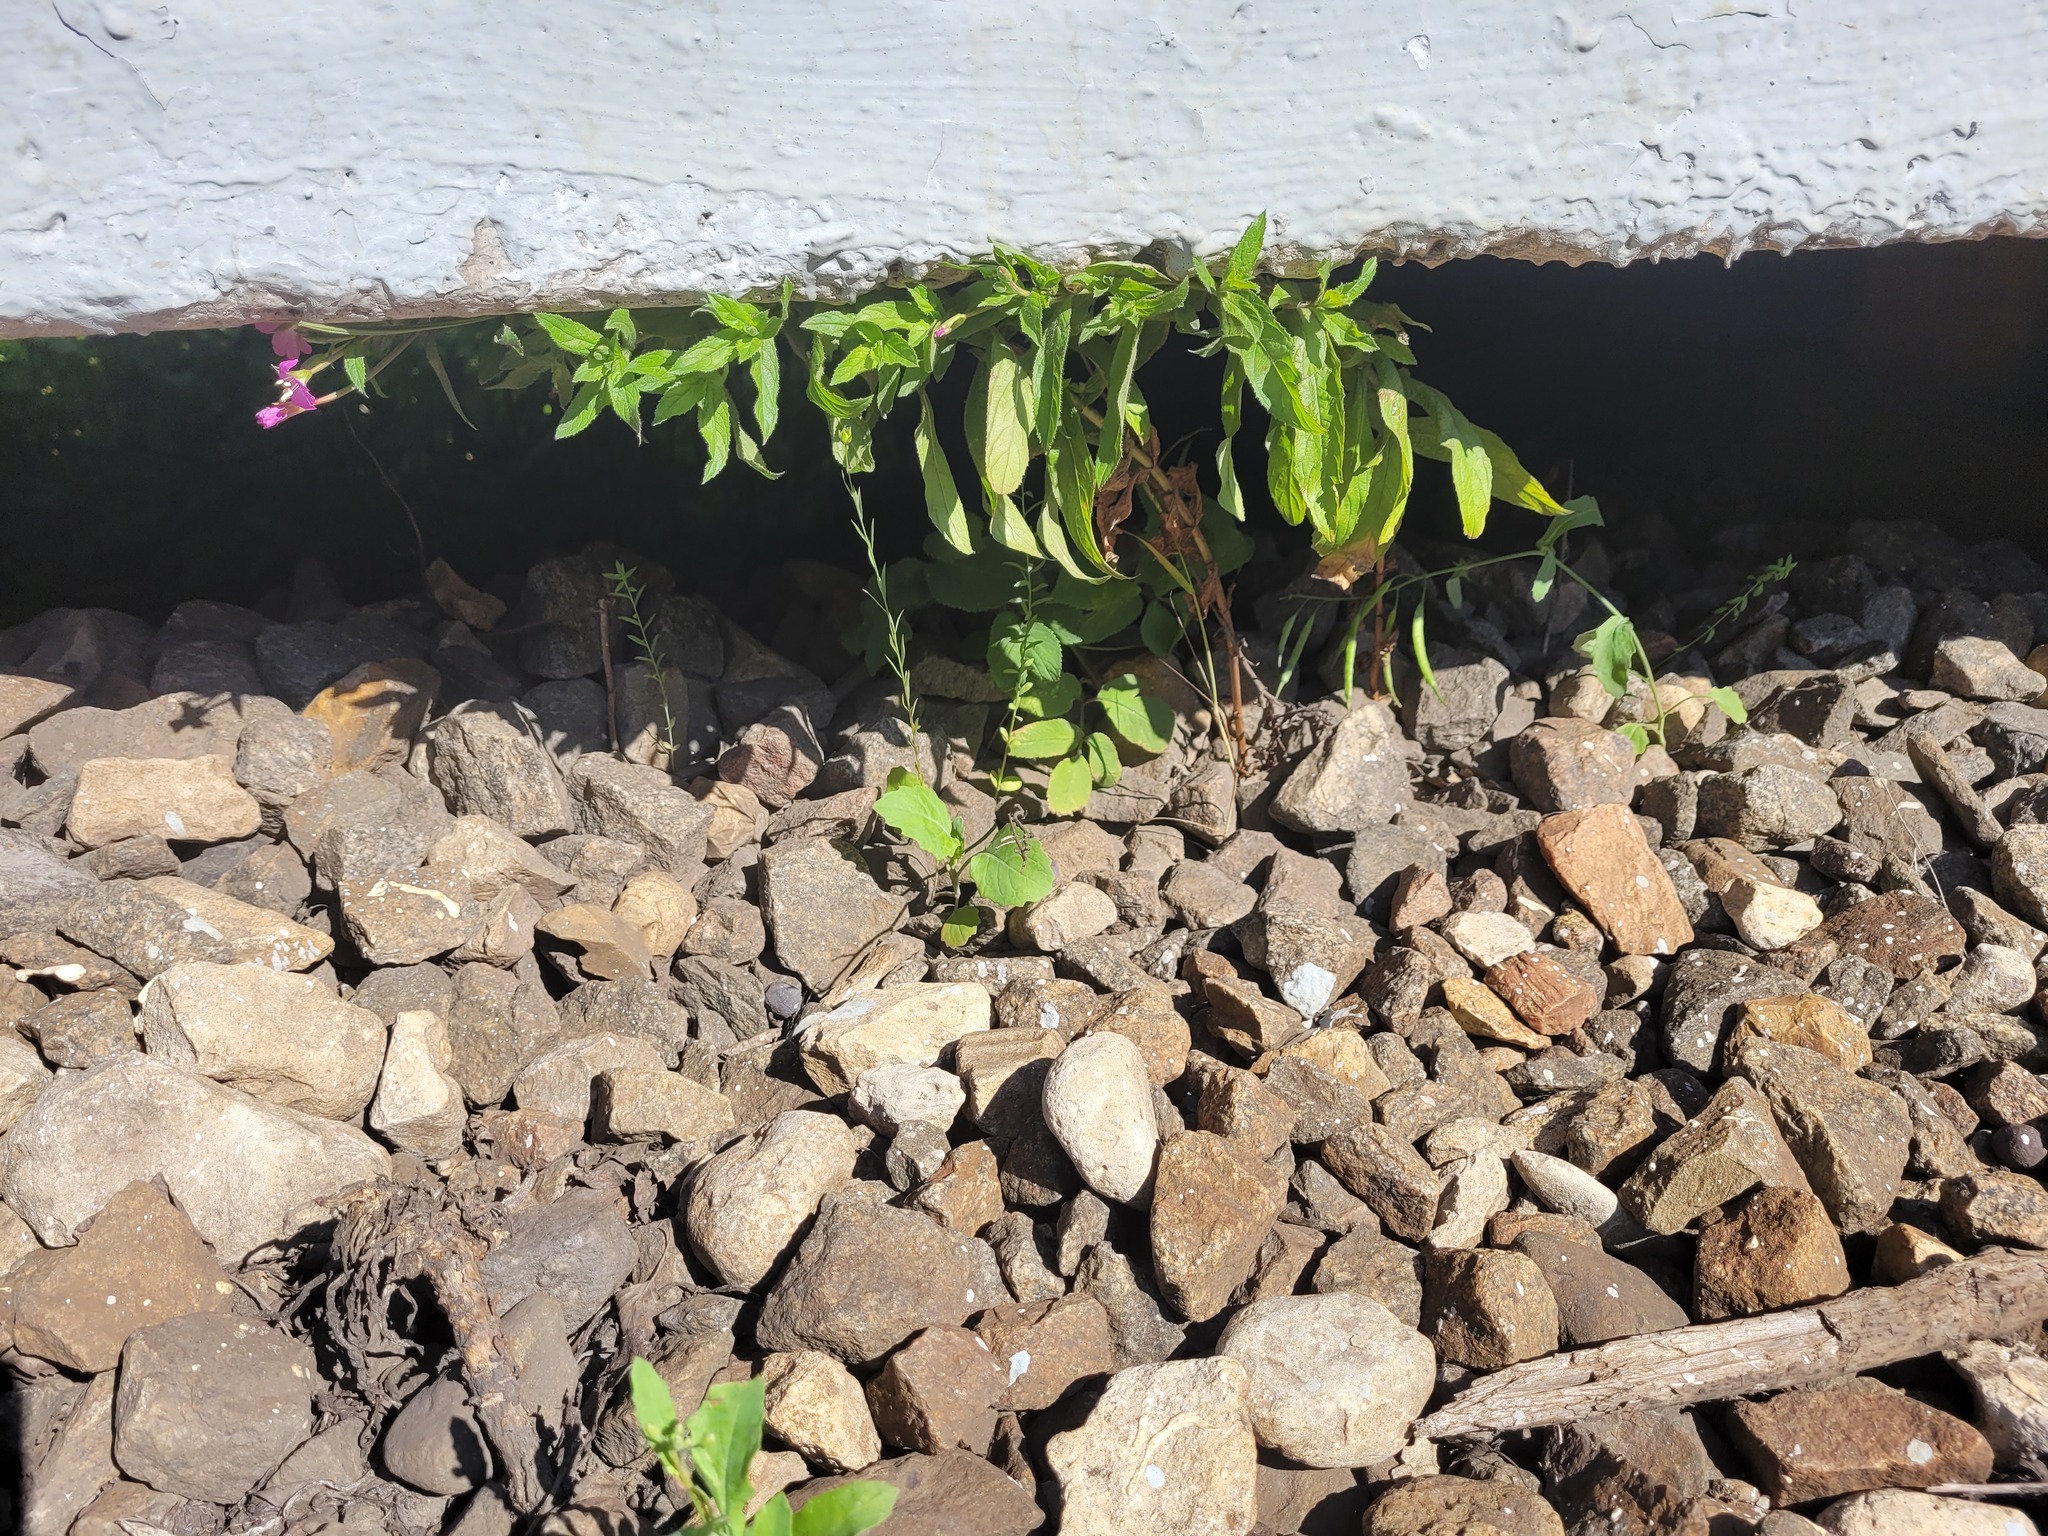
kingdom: Plantae
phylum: Tracheophyta
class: Magnoliopsida
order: Myrtales
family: Onagraceae
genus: Epilobium
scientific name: Epilobium hirsutum
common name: Great willowherb
